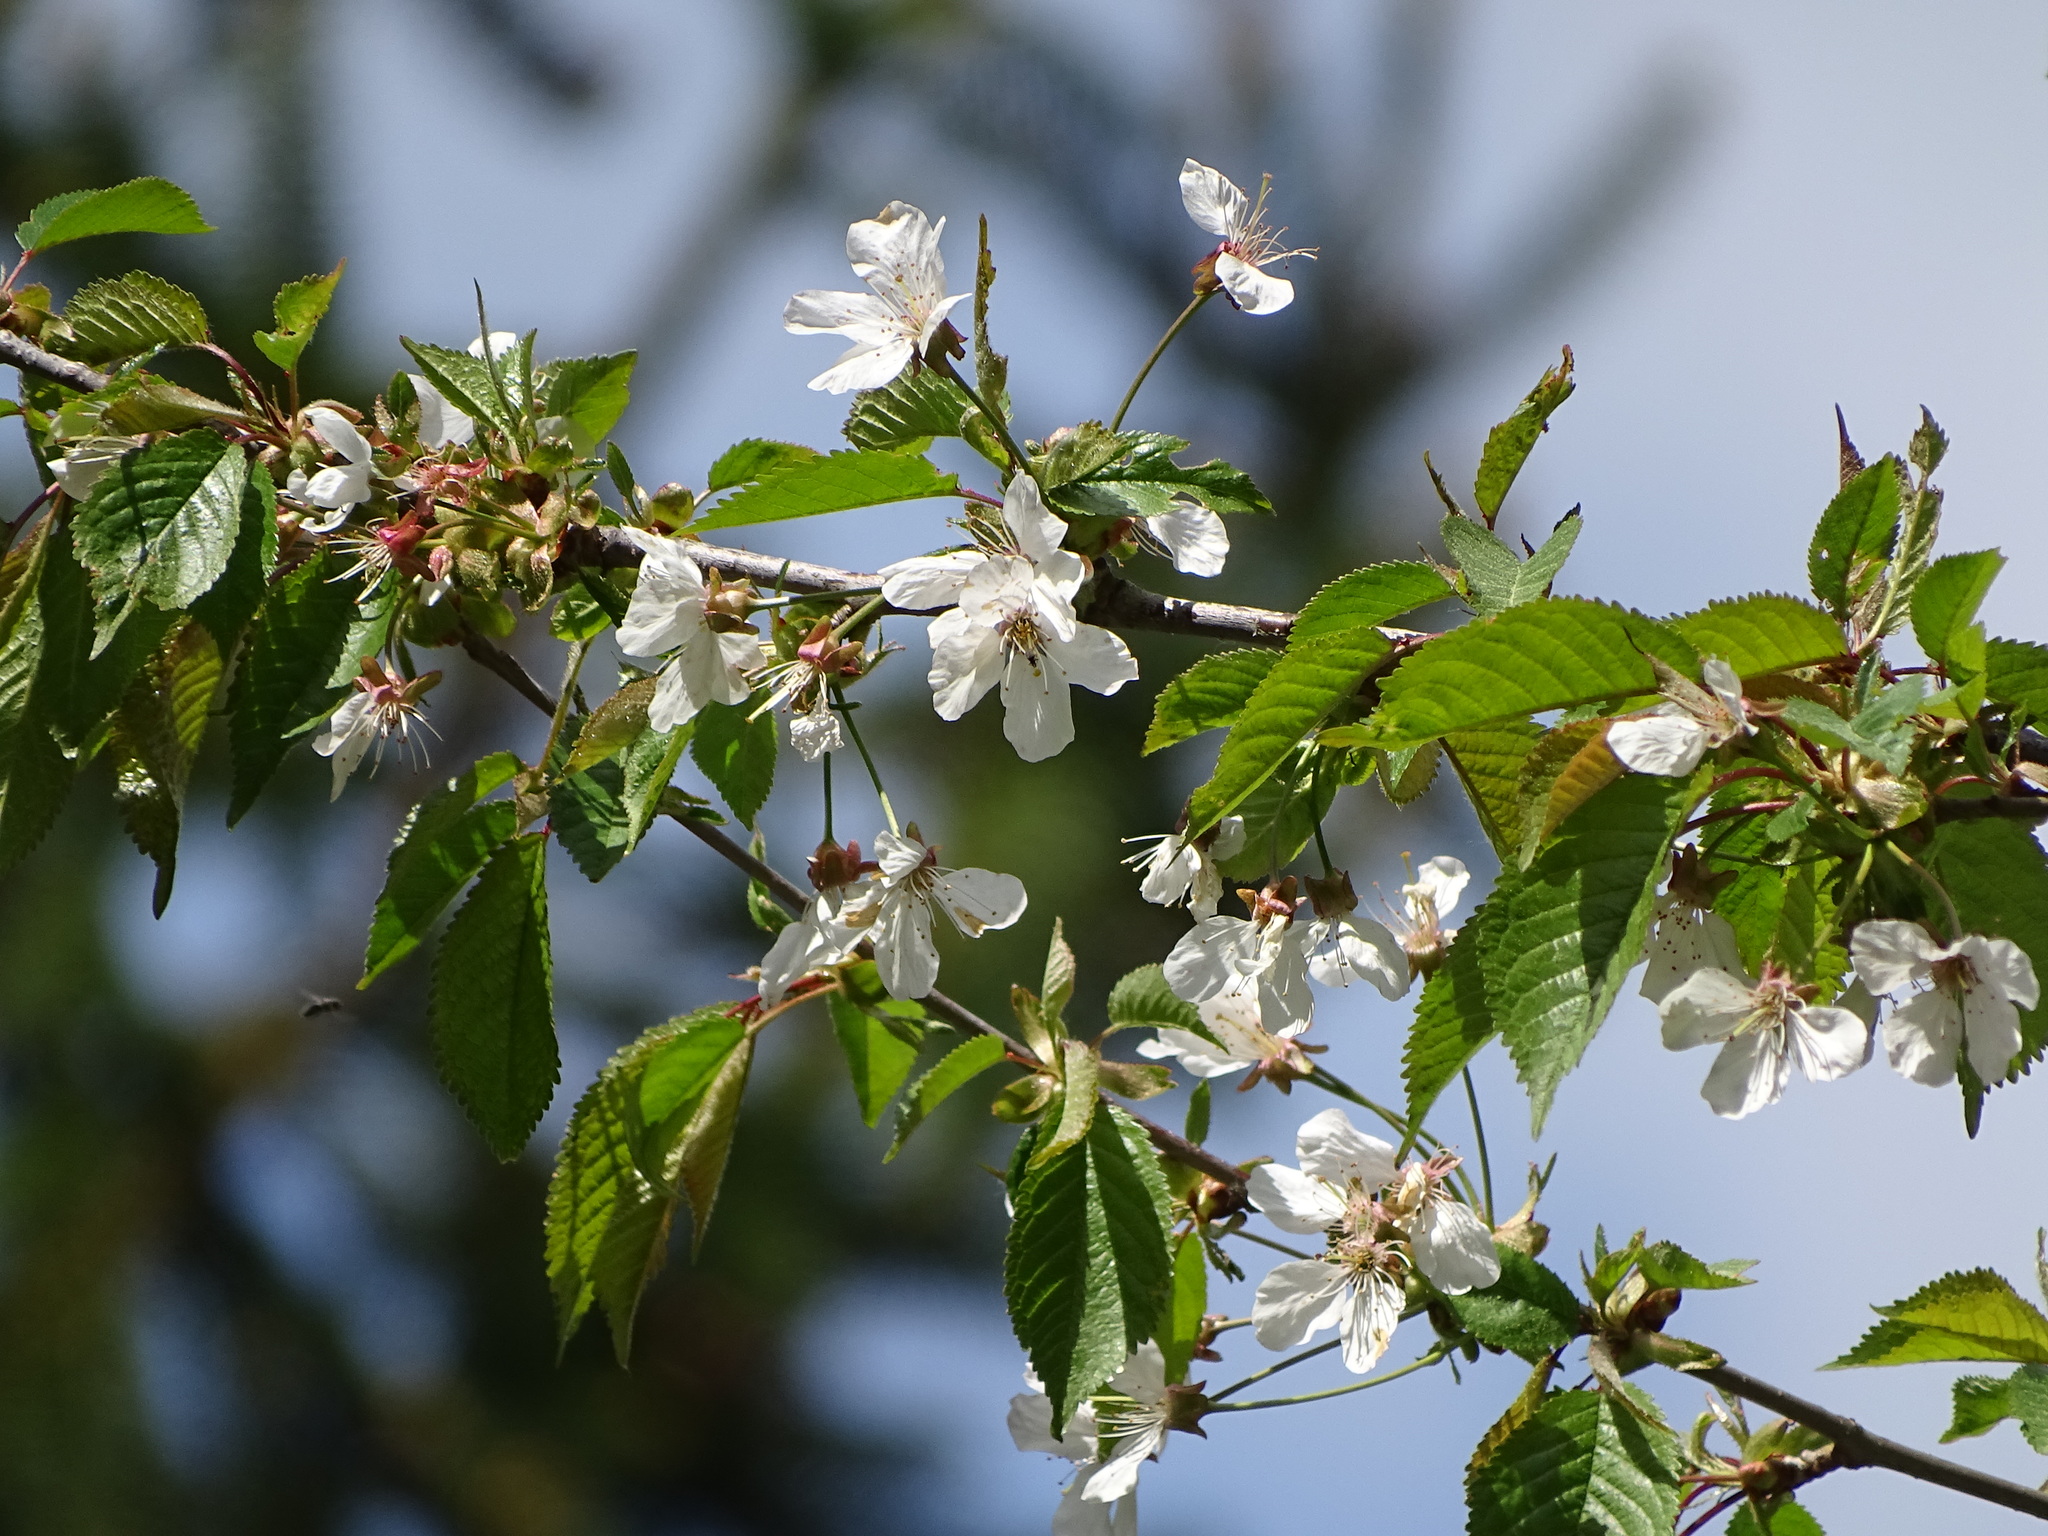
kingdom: Plantae
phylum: Tracheophyta
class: Magnoliopsida
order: Rosales
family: Rosaceae
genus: Prunus
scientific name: Prunus avium
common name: Sweet cherry
